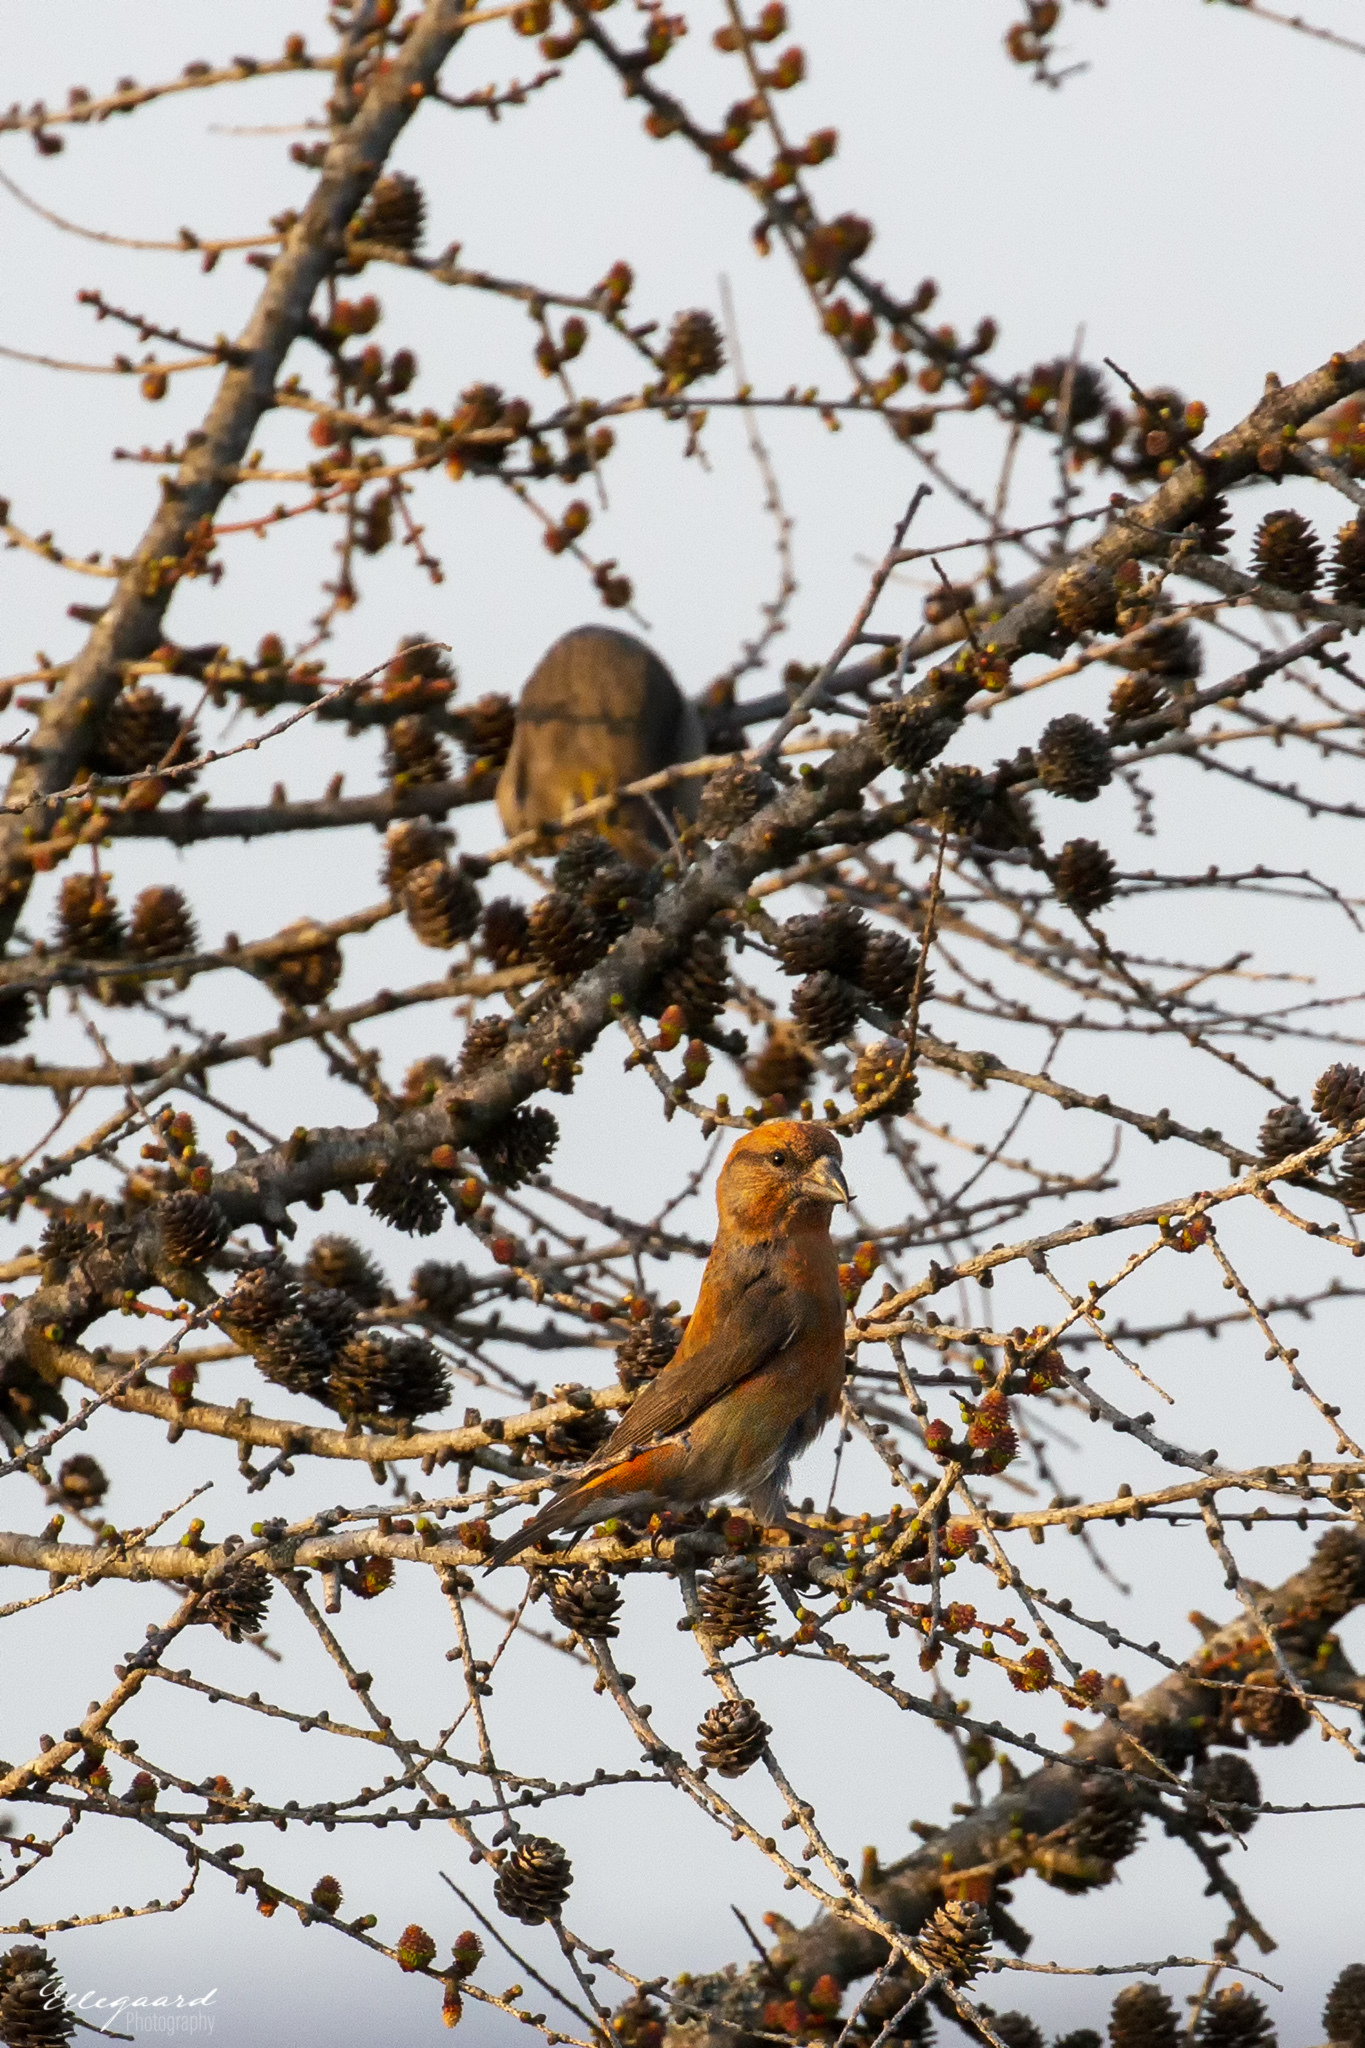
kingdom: Animalia
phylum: Chordata
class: Aves
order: Passeriformes
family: Fringillidae
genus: Loxia
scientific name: Loxia curvirostra
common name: Red crossbill
